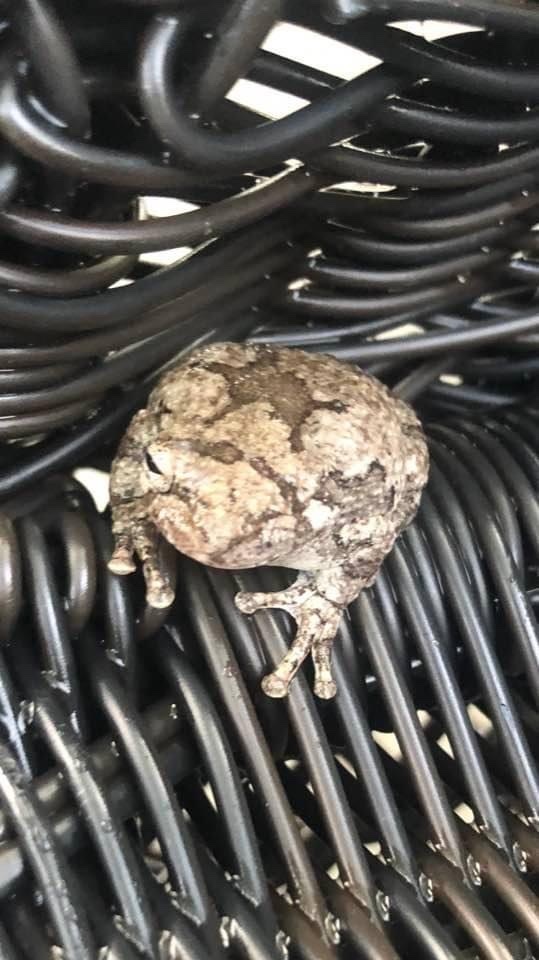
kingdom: Animalia
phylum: Chordata
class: Amphibia
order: Anura
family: Hylidae
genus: Dryophytes
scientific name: Dryophytes chrysoscelis
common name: Cope's gray treefrog
